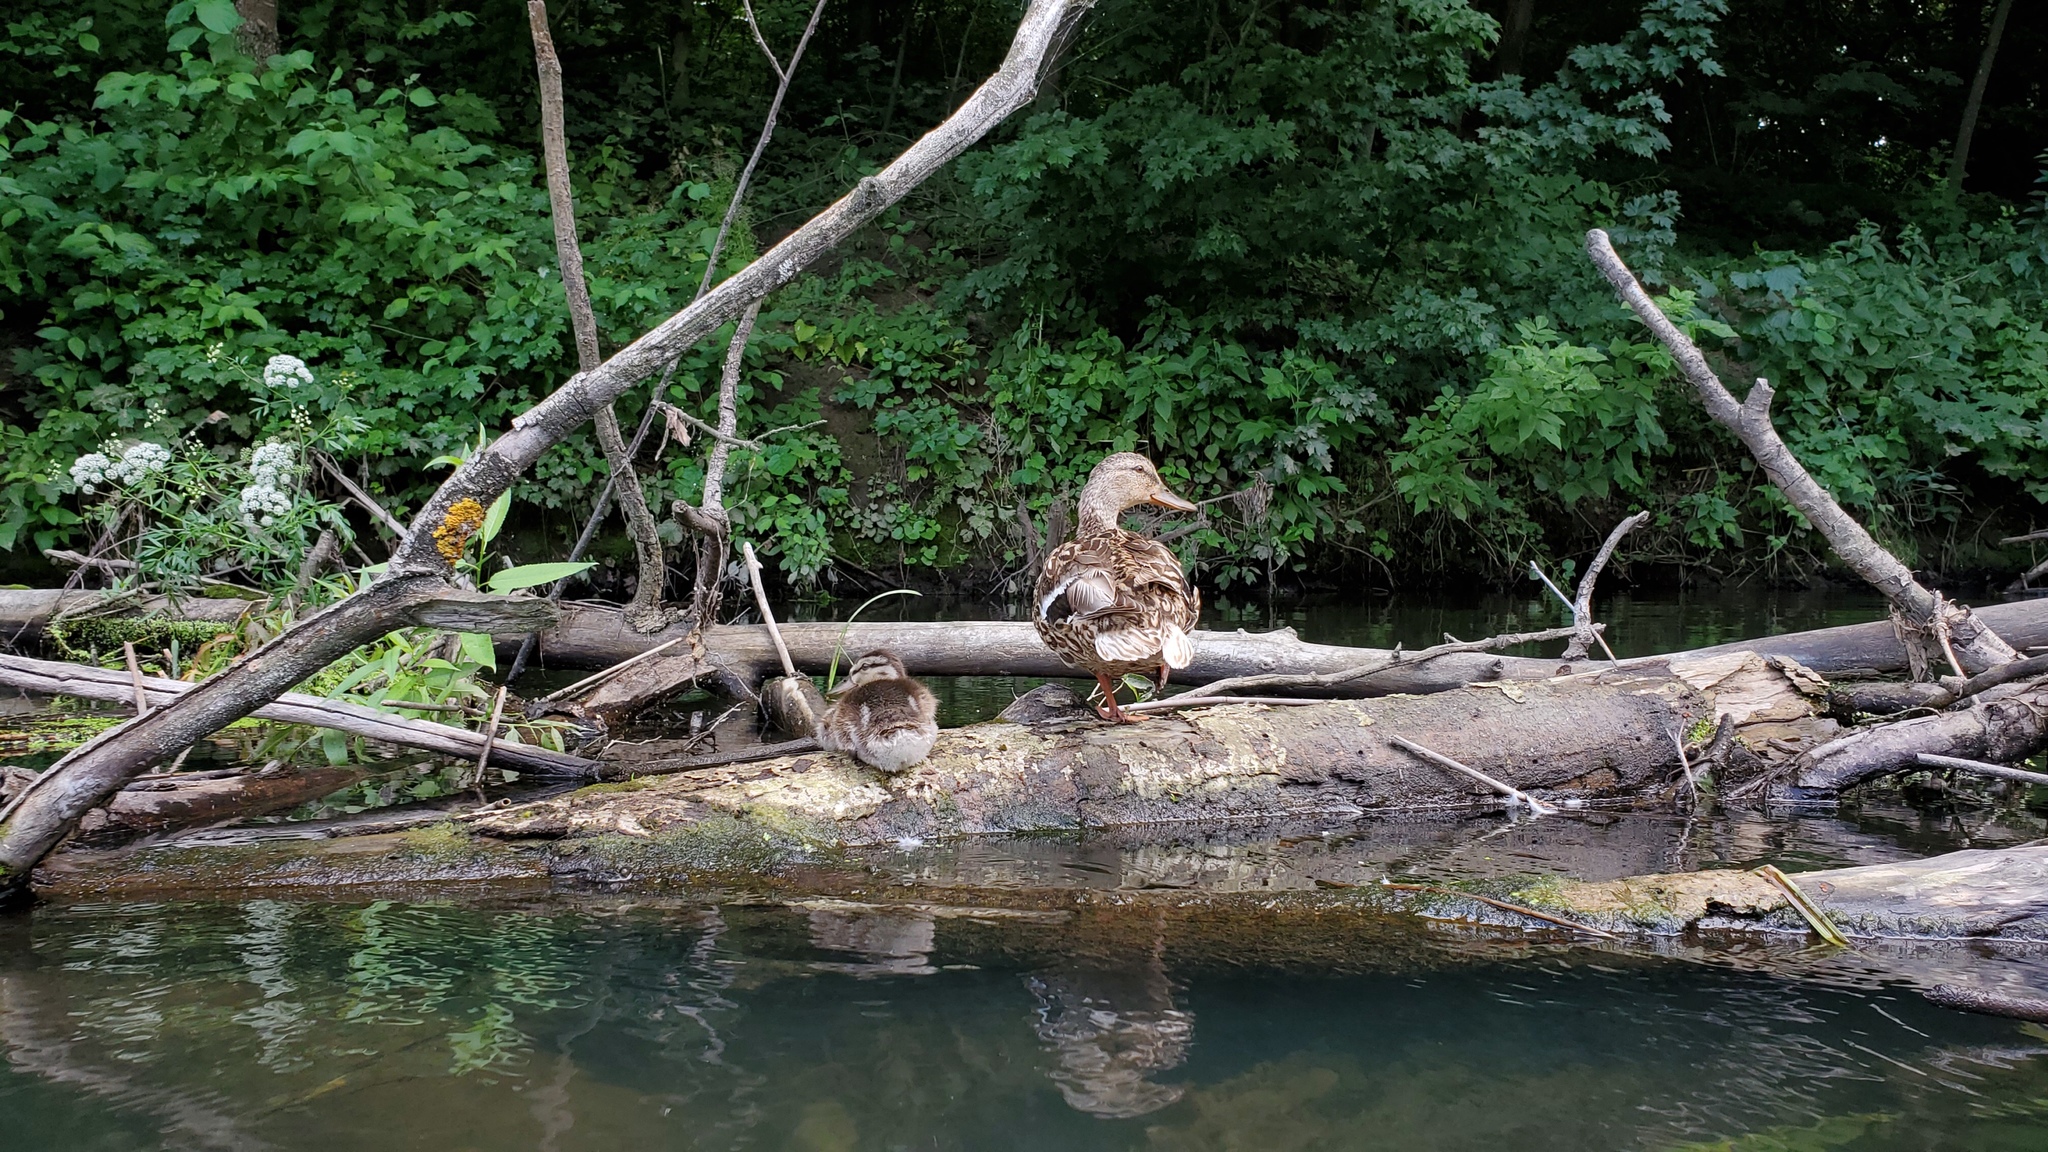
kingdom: Animalia
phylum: Chordata
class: Aves
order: Anseriformes
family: Anatidae
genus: Anas
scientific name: Anas platyrhynchos
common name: Mallard
